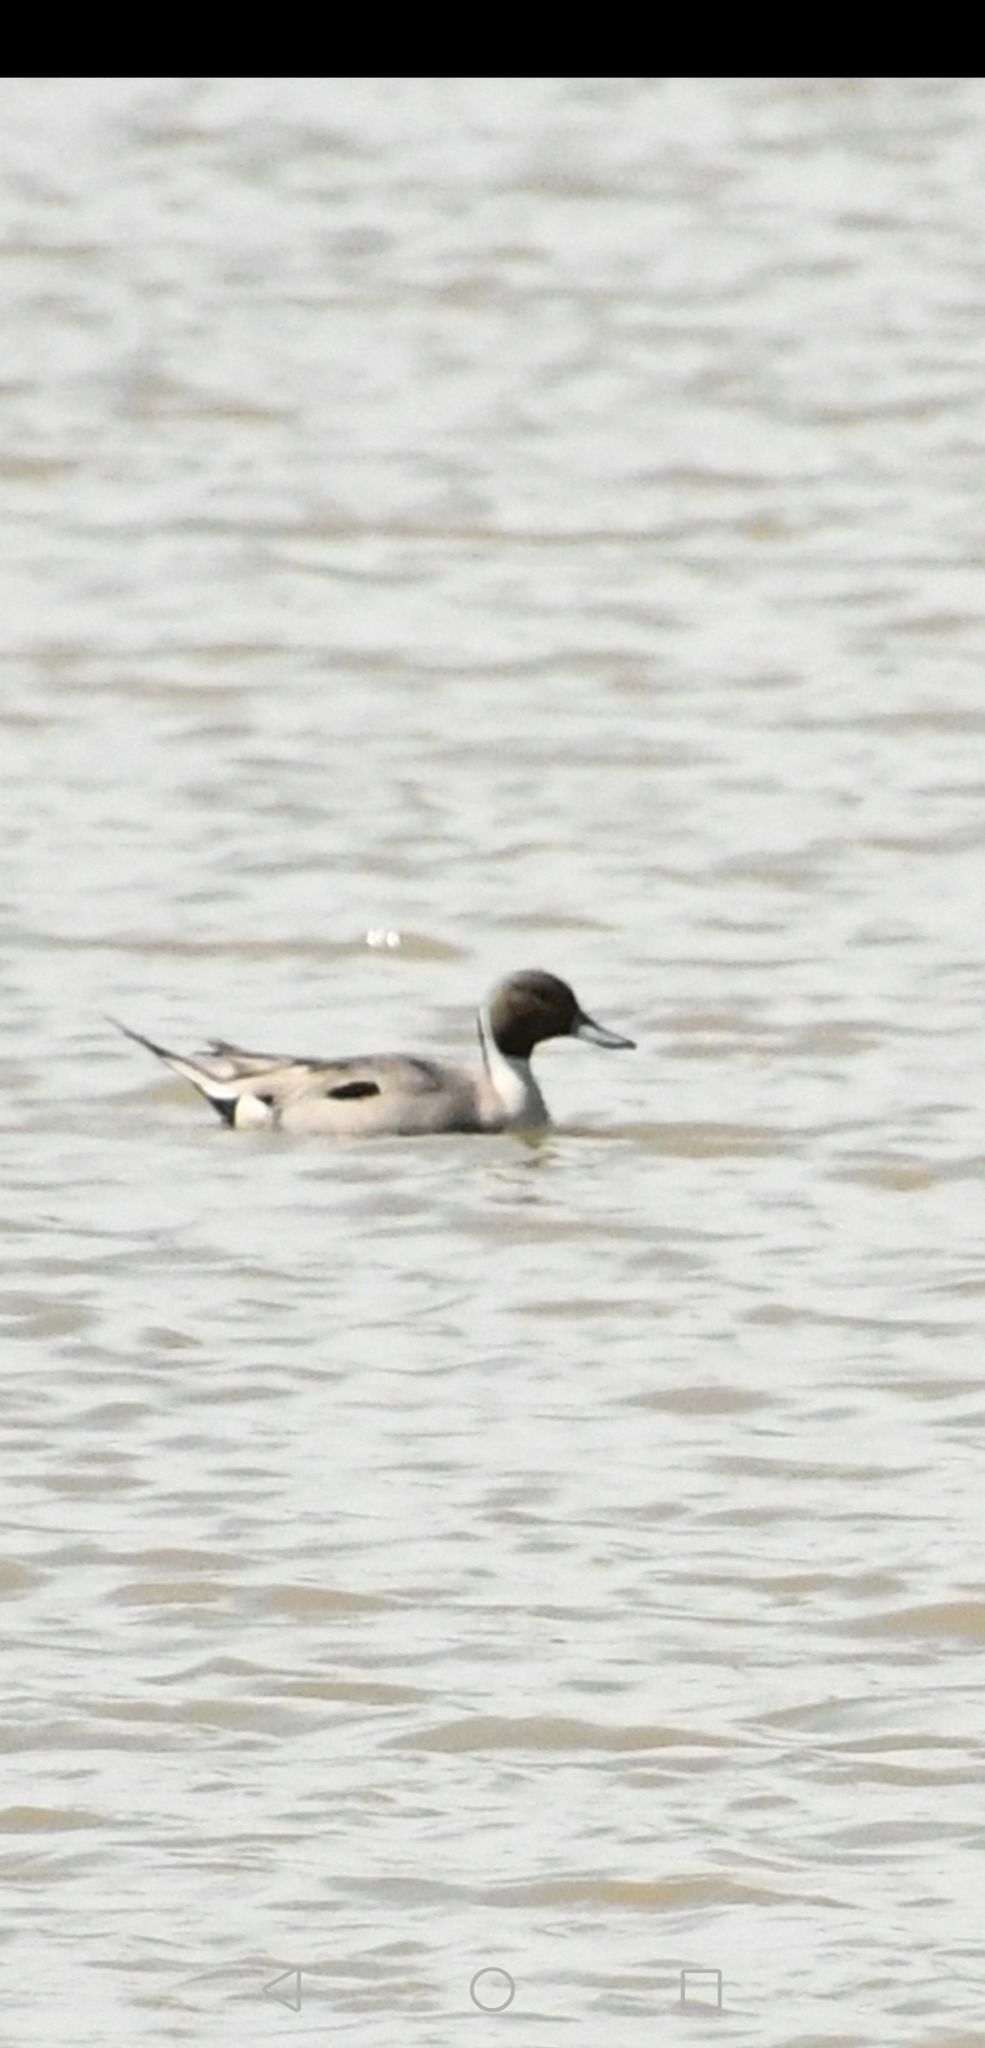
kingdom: Animalia
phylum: Chordata
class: Aves
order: Anseriformes
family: Anatidae
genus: Anas
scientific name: Anas acuta
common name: Northern pintail
